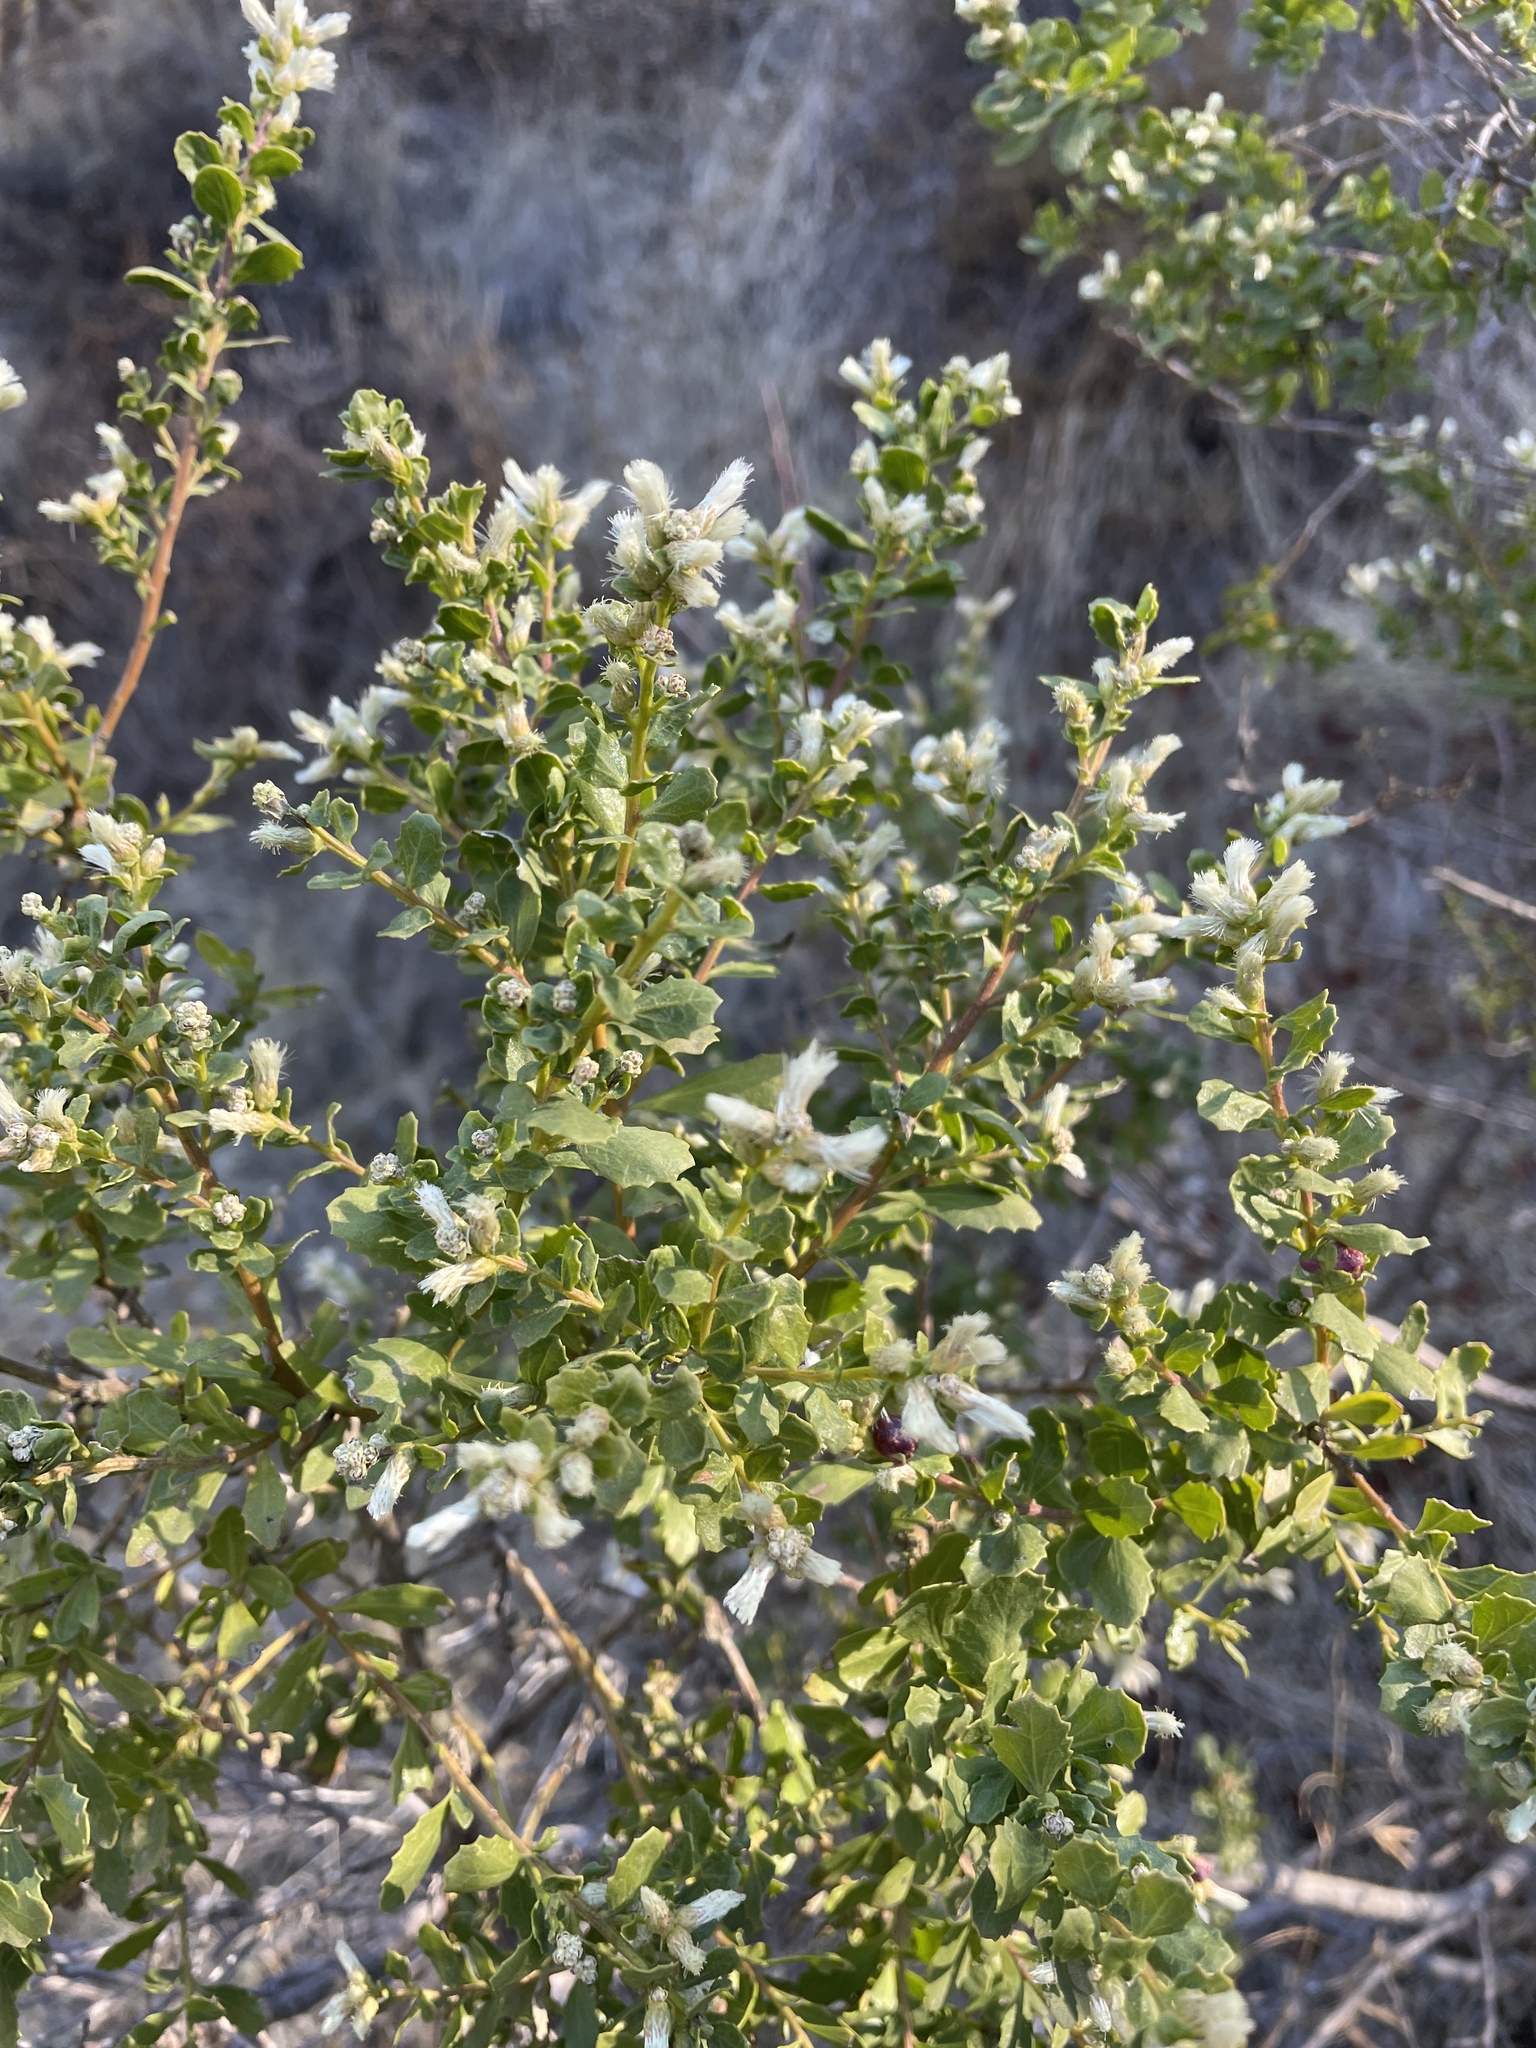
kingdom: Plantae
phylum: Tracheophyta
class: Magnoliopsida
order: Asterales
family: Asteraceae
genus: Baccharis
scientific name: Baccharis pilularis
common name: Coyotebrush
